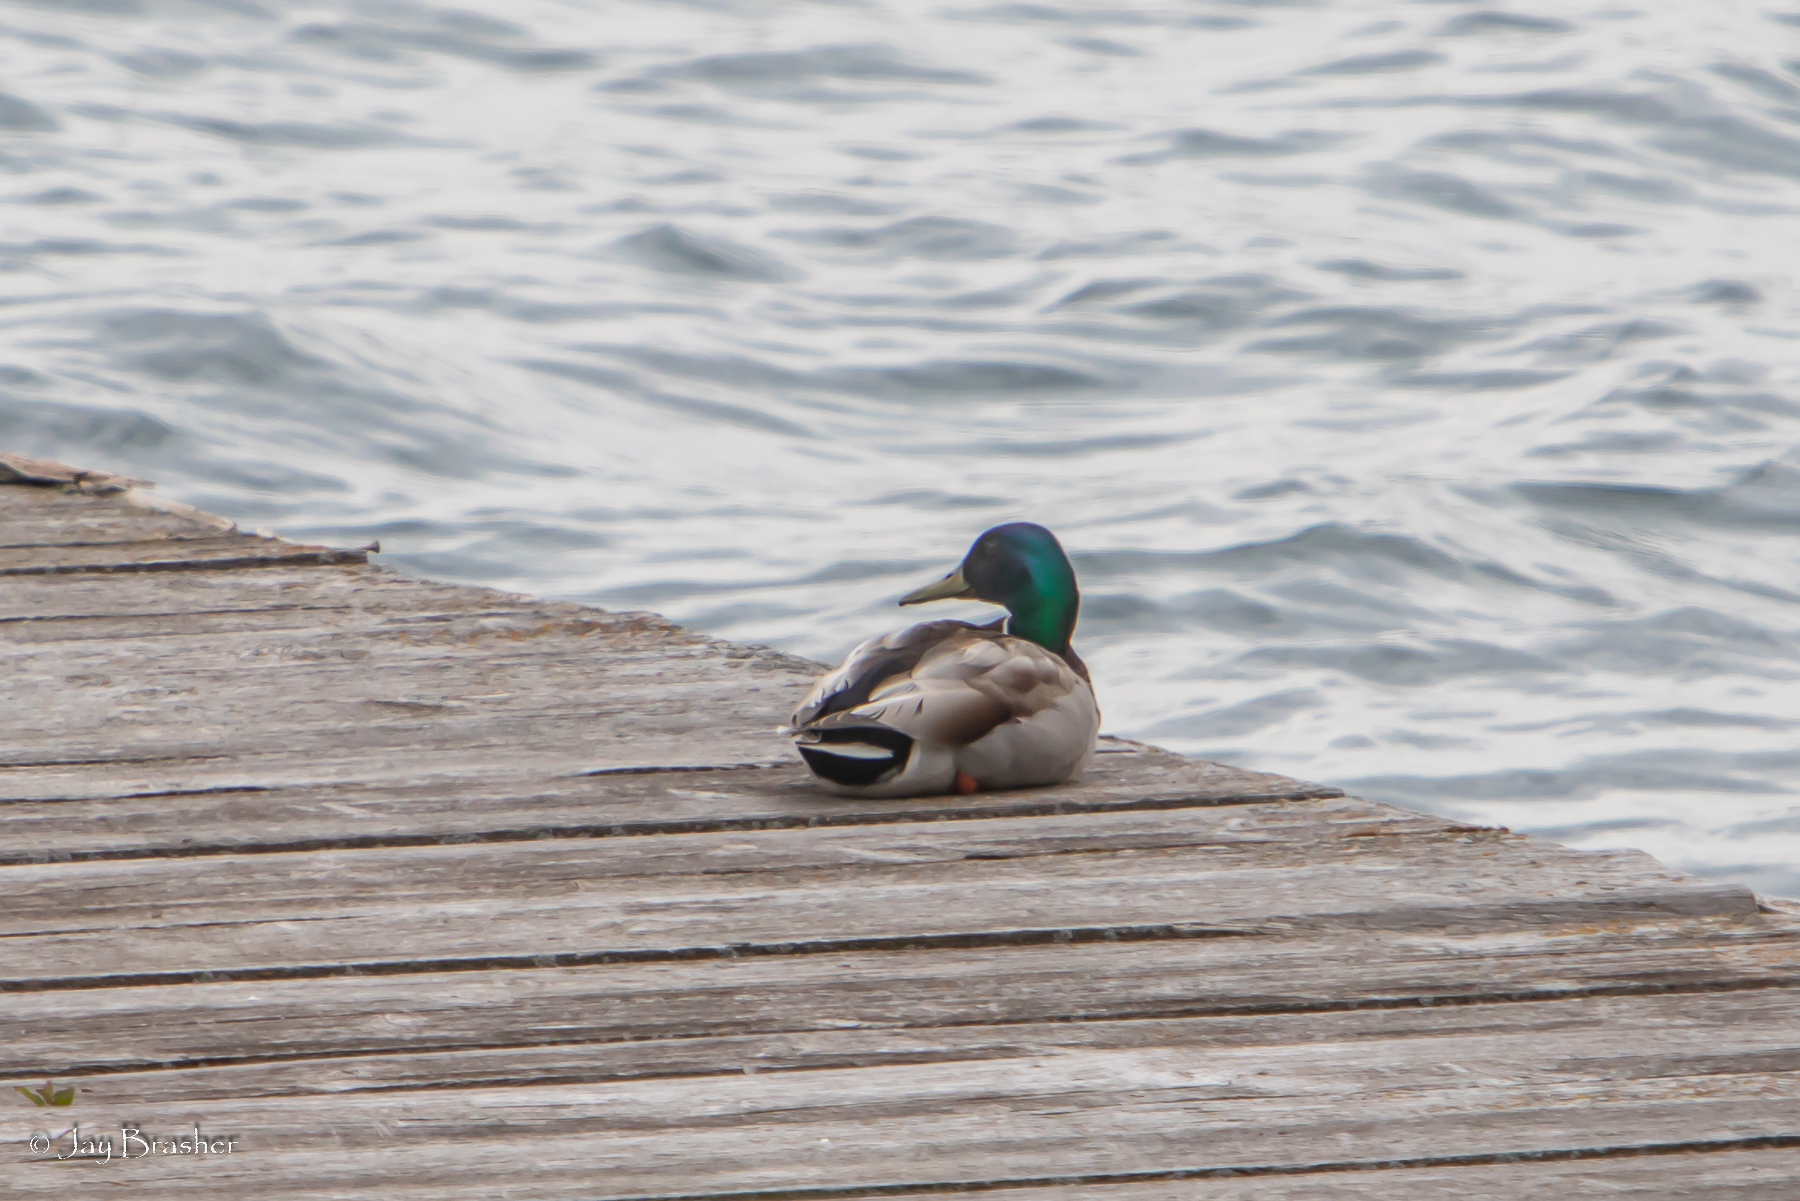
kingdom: Animalia
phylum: Chordata
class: Aves
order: Anseriformes
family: Anatidae
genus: Anas
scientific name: Anas platyrhynchos
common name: Mallard
